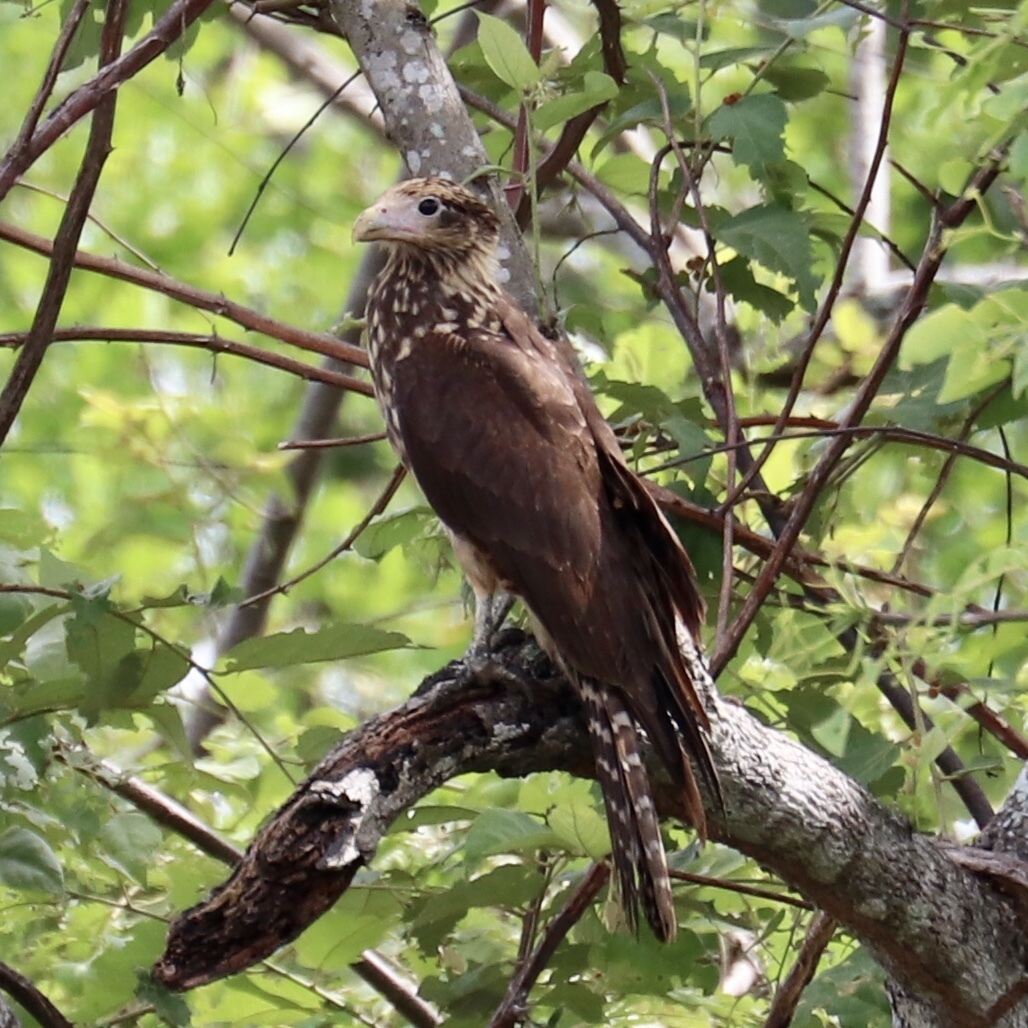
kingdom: Animalia
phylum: Chordata
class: Aves
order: Falconiformes
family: Falconidae
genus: Daptrius
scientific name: Daptrius
